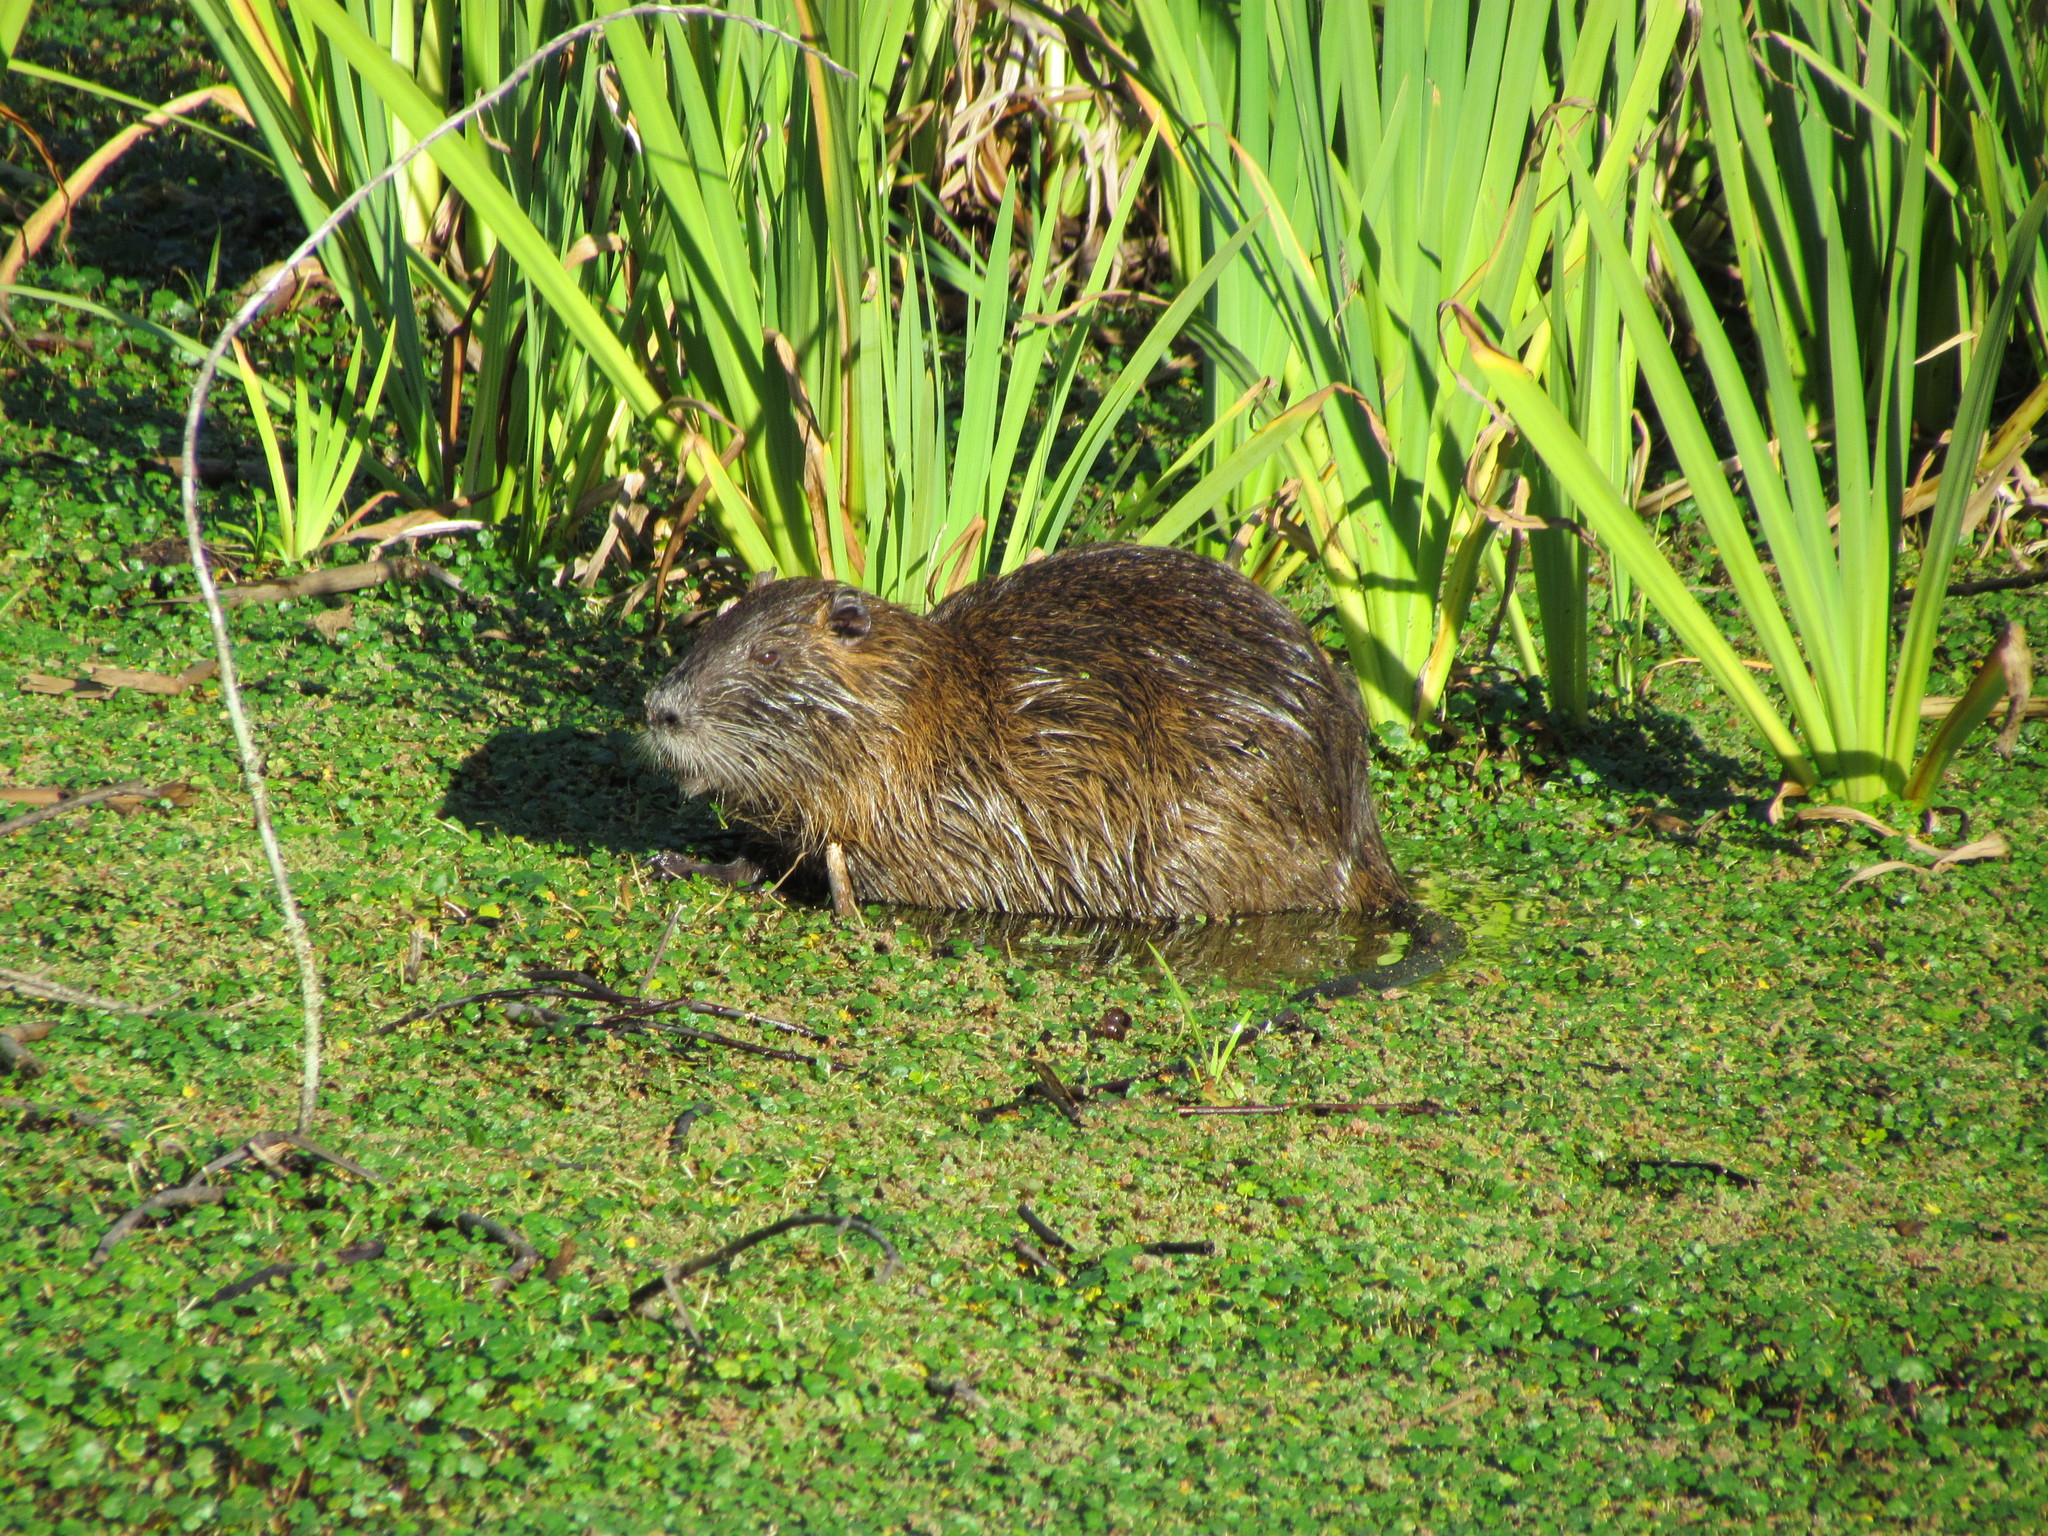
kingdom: Animalia
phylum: Chordata
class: Mammalia
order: Rodentia
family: Myocastoridae
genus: Myocastor
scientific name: Myocastor coypus
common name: Coypu
